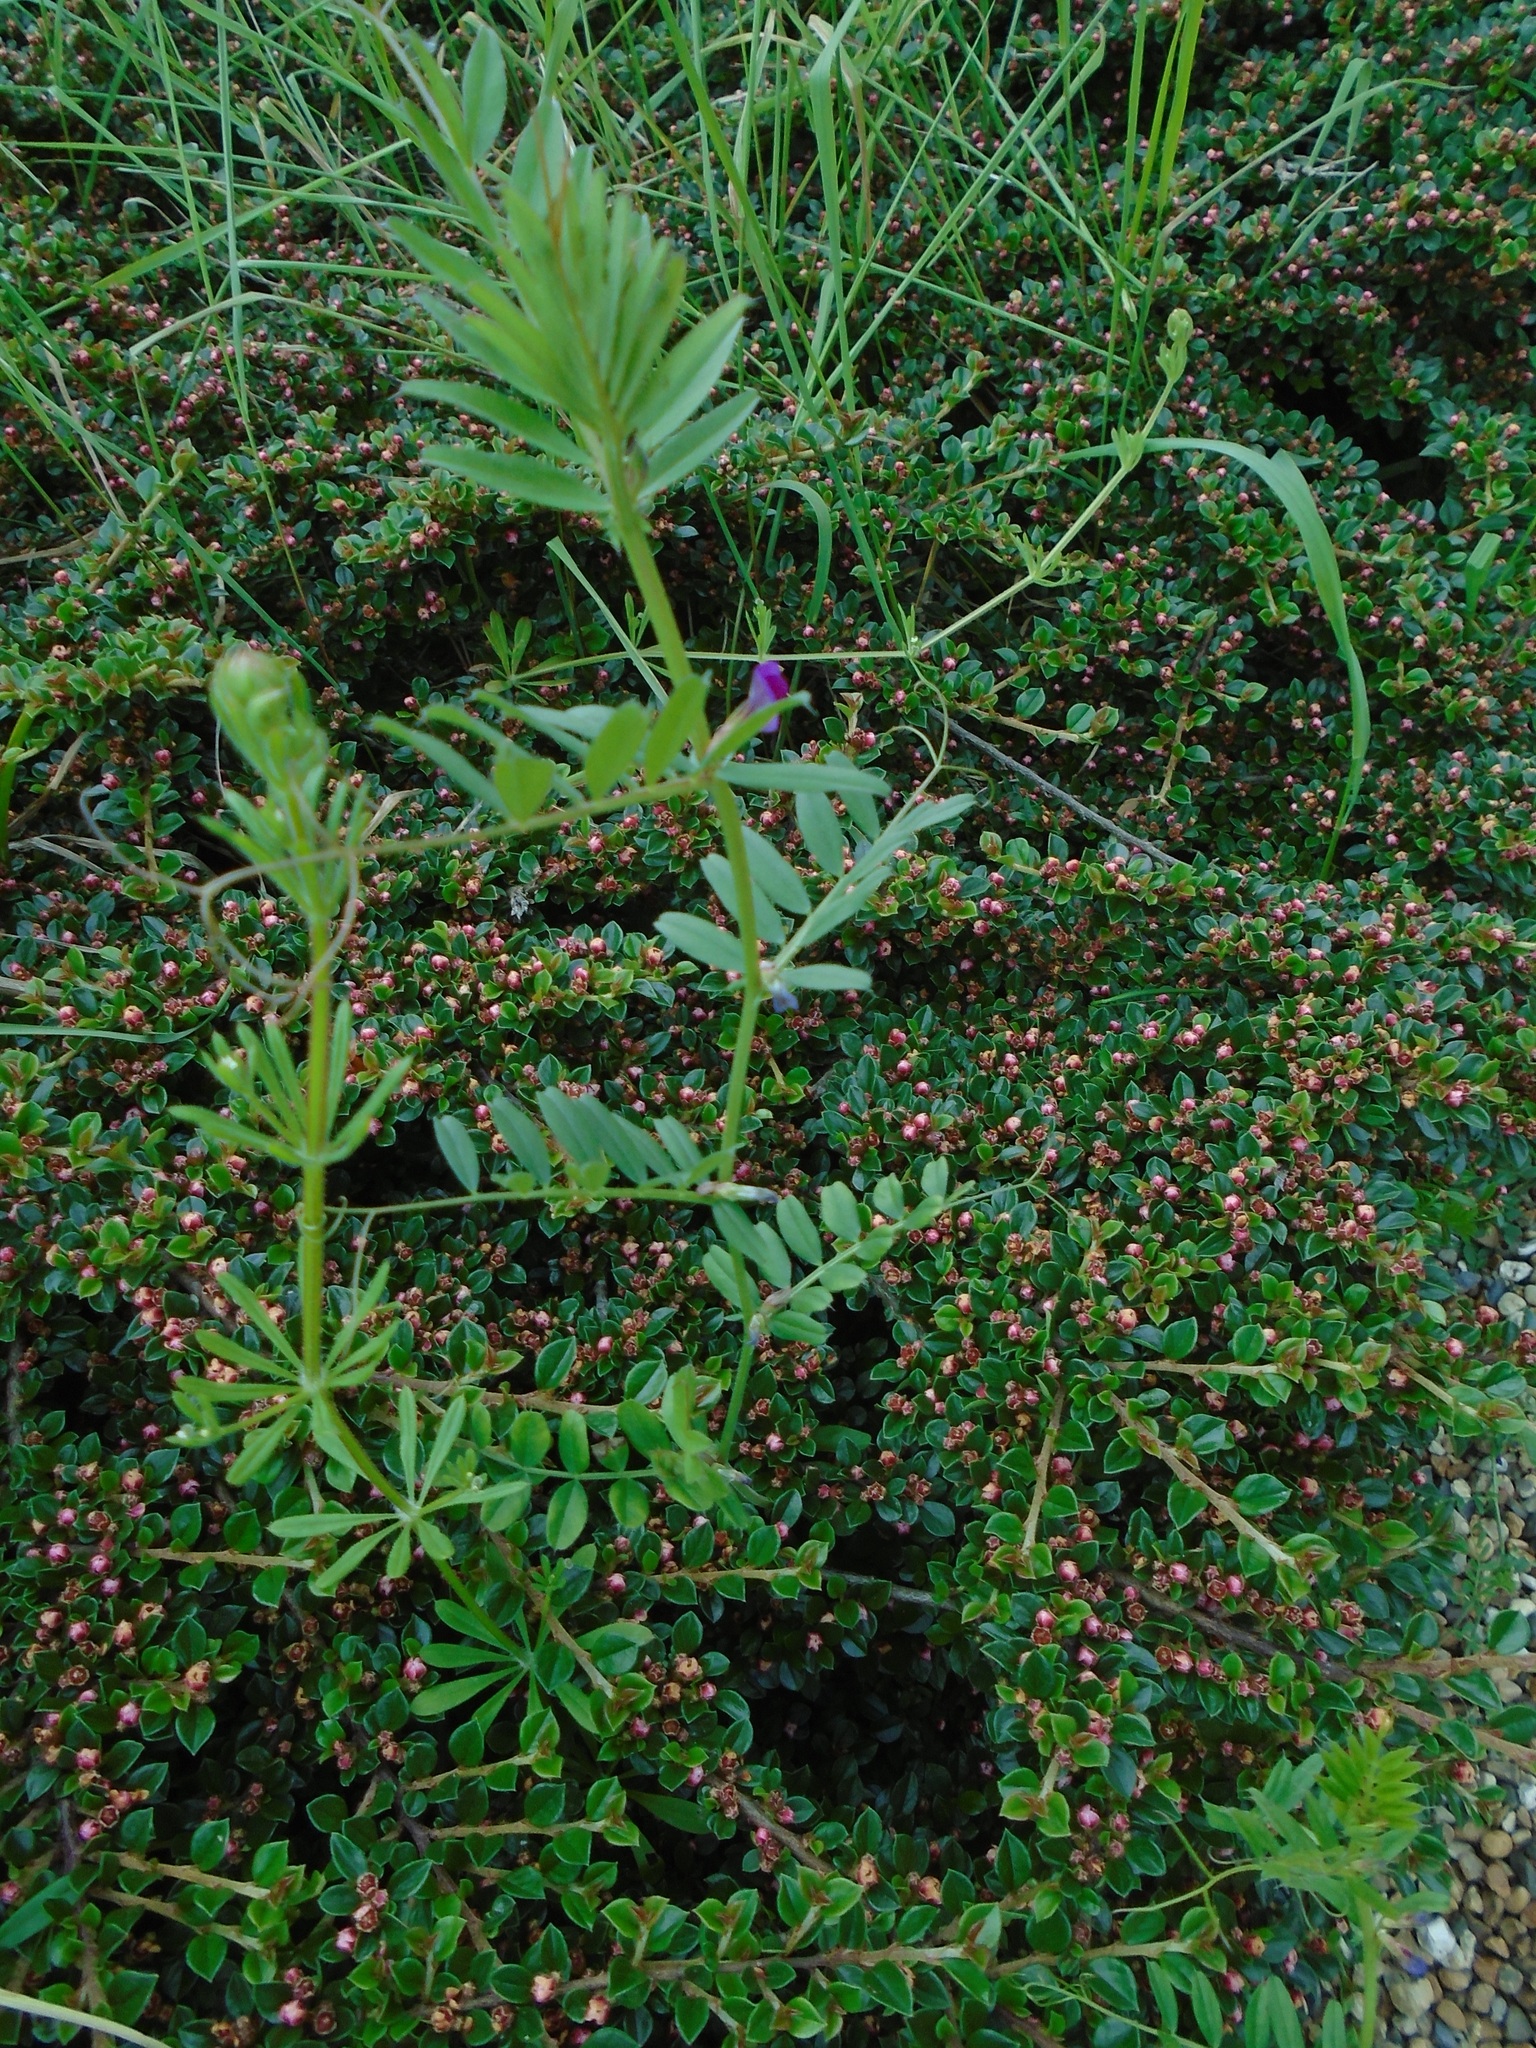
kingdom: Plantae
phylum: Tracheophyta
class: Magnoliopsida
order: Fabales
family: Fabaceae
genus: Vicia
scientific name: Vicia sativa
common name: Garden vetch
